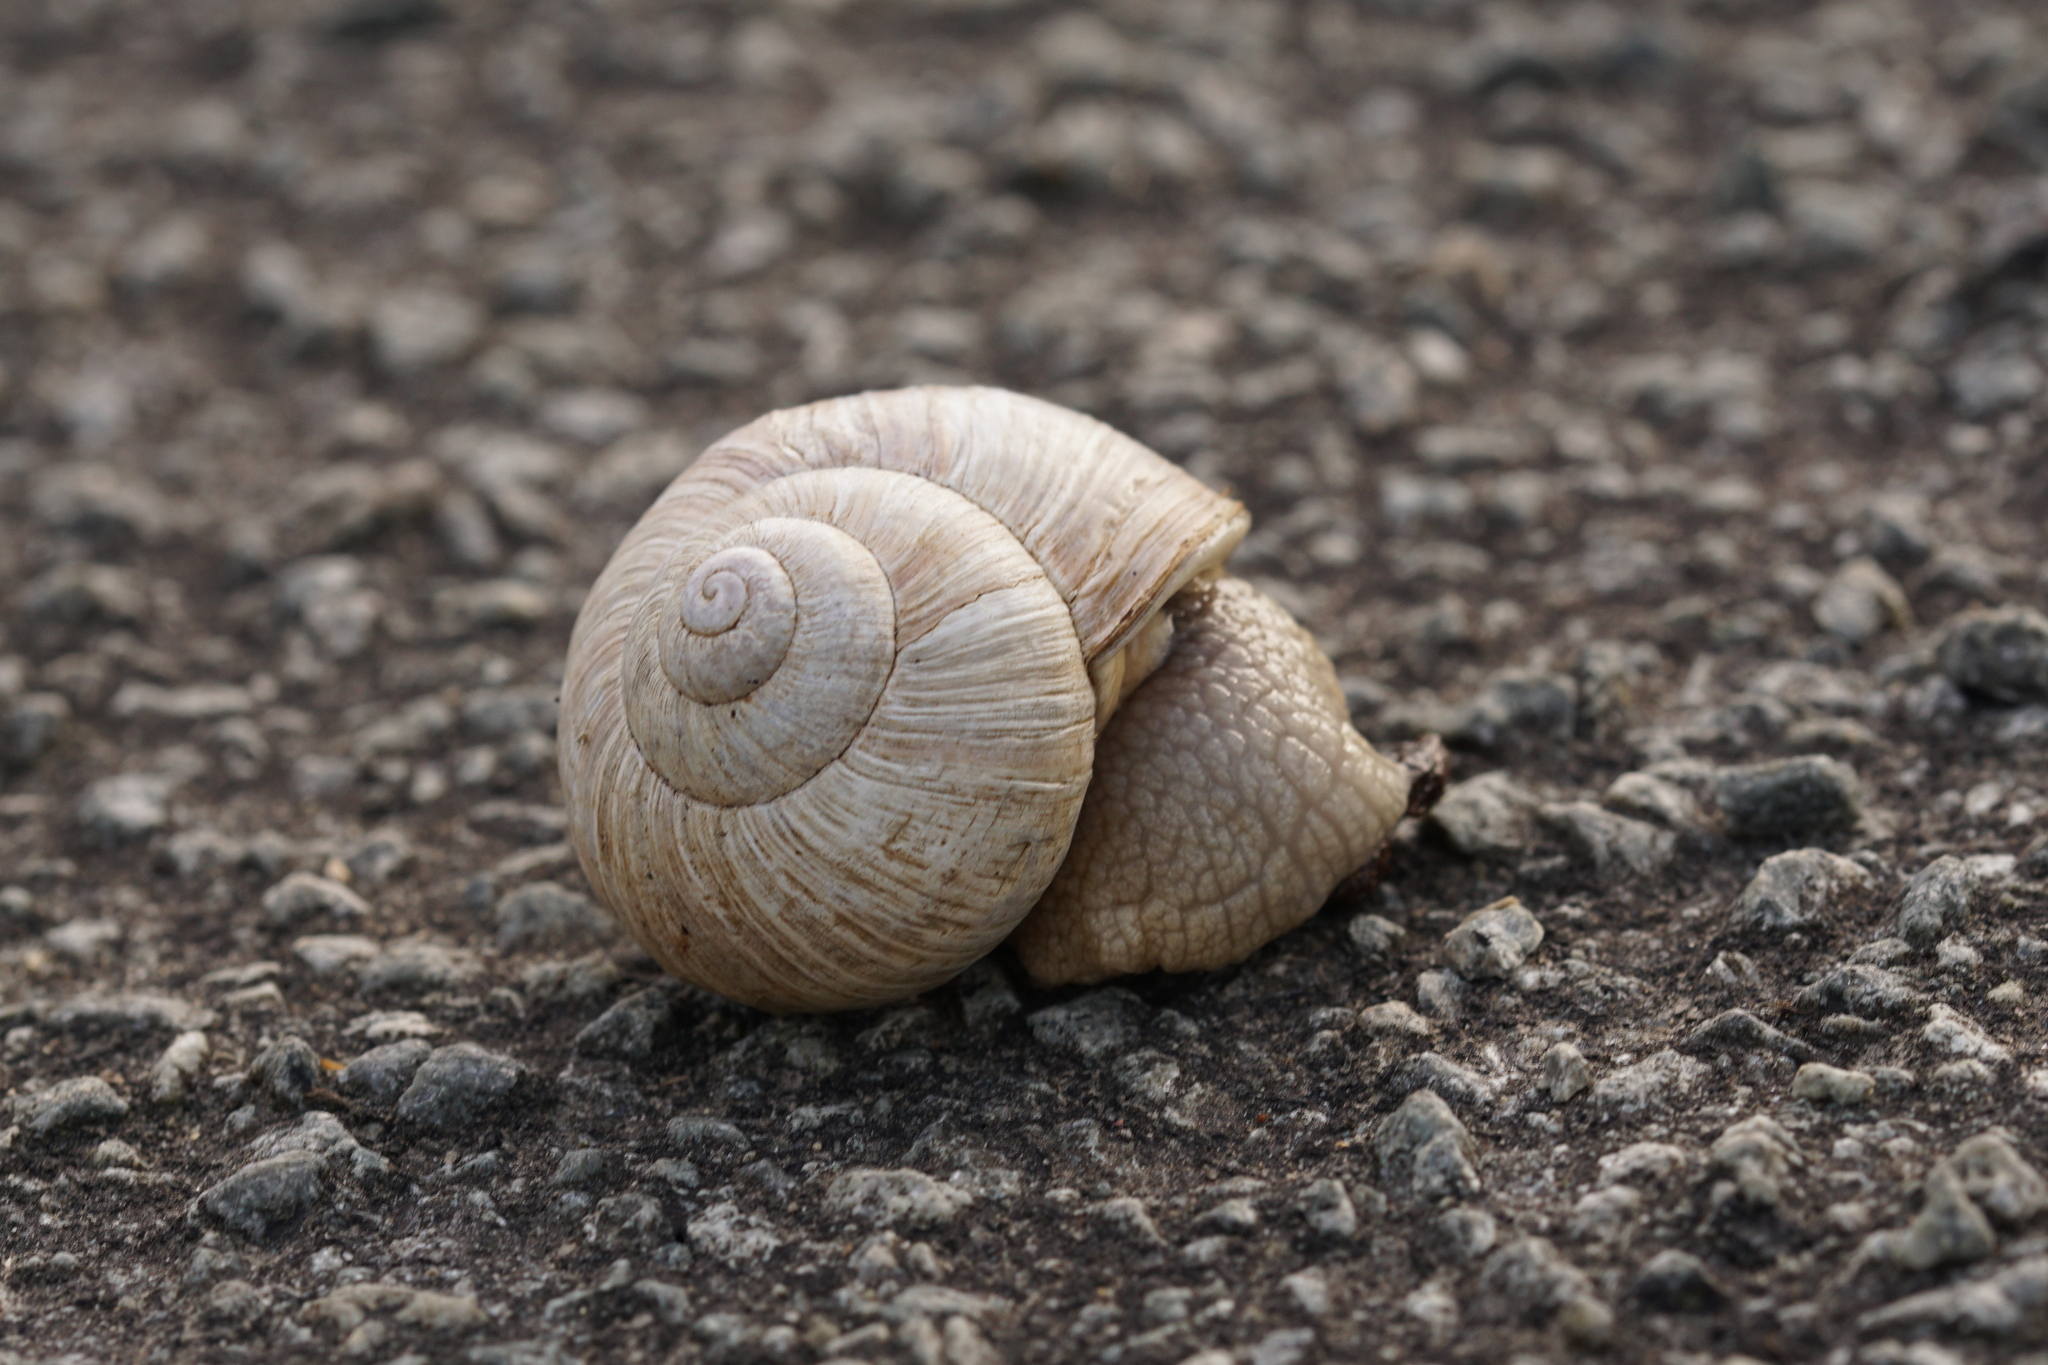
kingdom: Animalia
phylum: Mollusca
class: Gastropoda
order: Stylommatophora
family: Helicidae
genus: Helix
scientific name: Helix pomatia
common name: Roman snail
